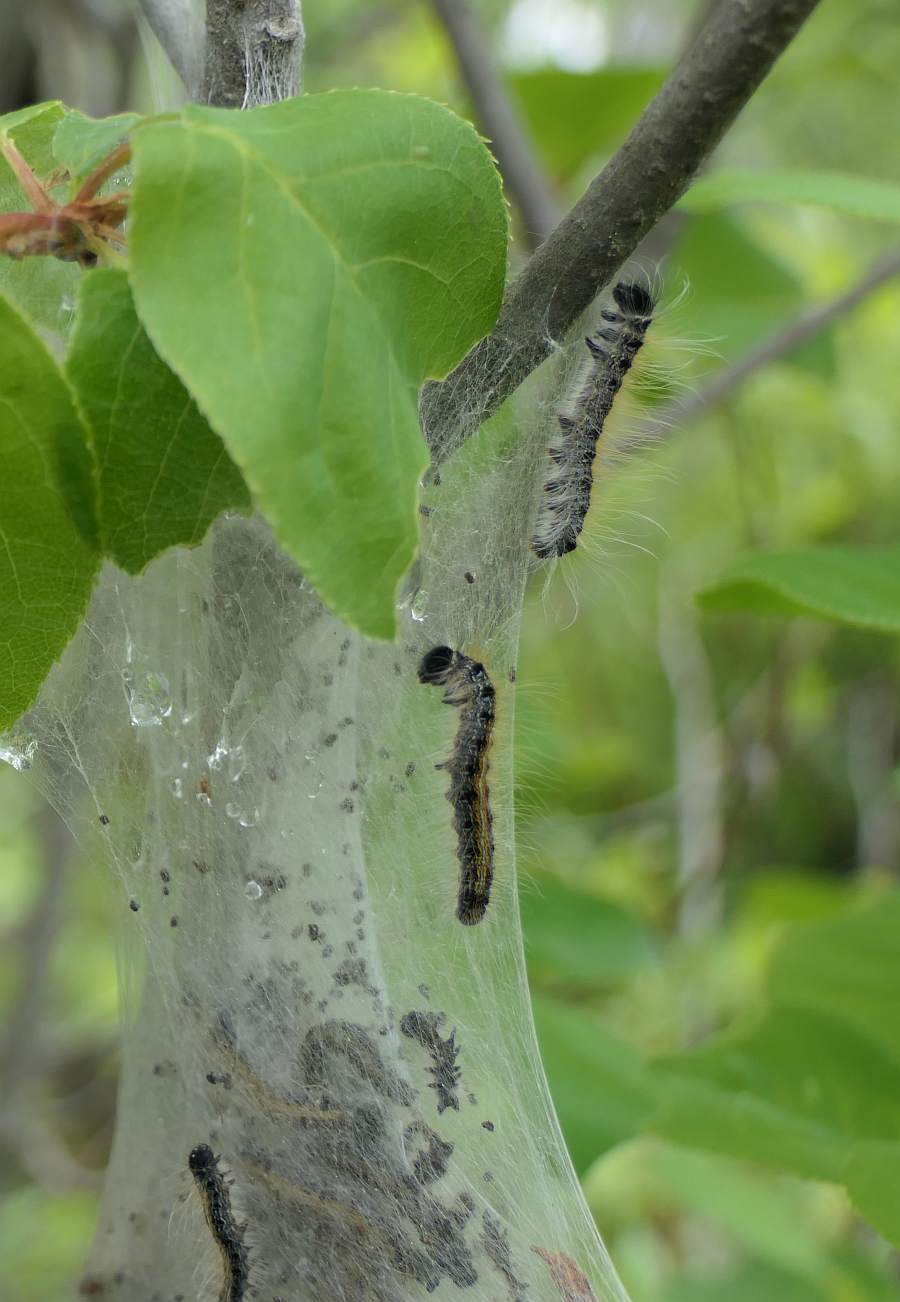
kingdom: Animalia
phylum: Arthropoda
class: Insecta
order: Lepidoptera
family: Lasiocampidae
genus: Malacosoma
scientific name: Malacosoma americana
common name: Eastern tent caterpillar moth
